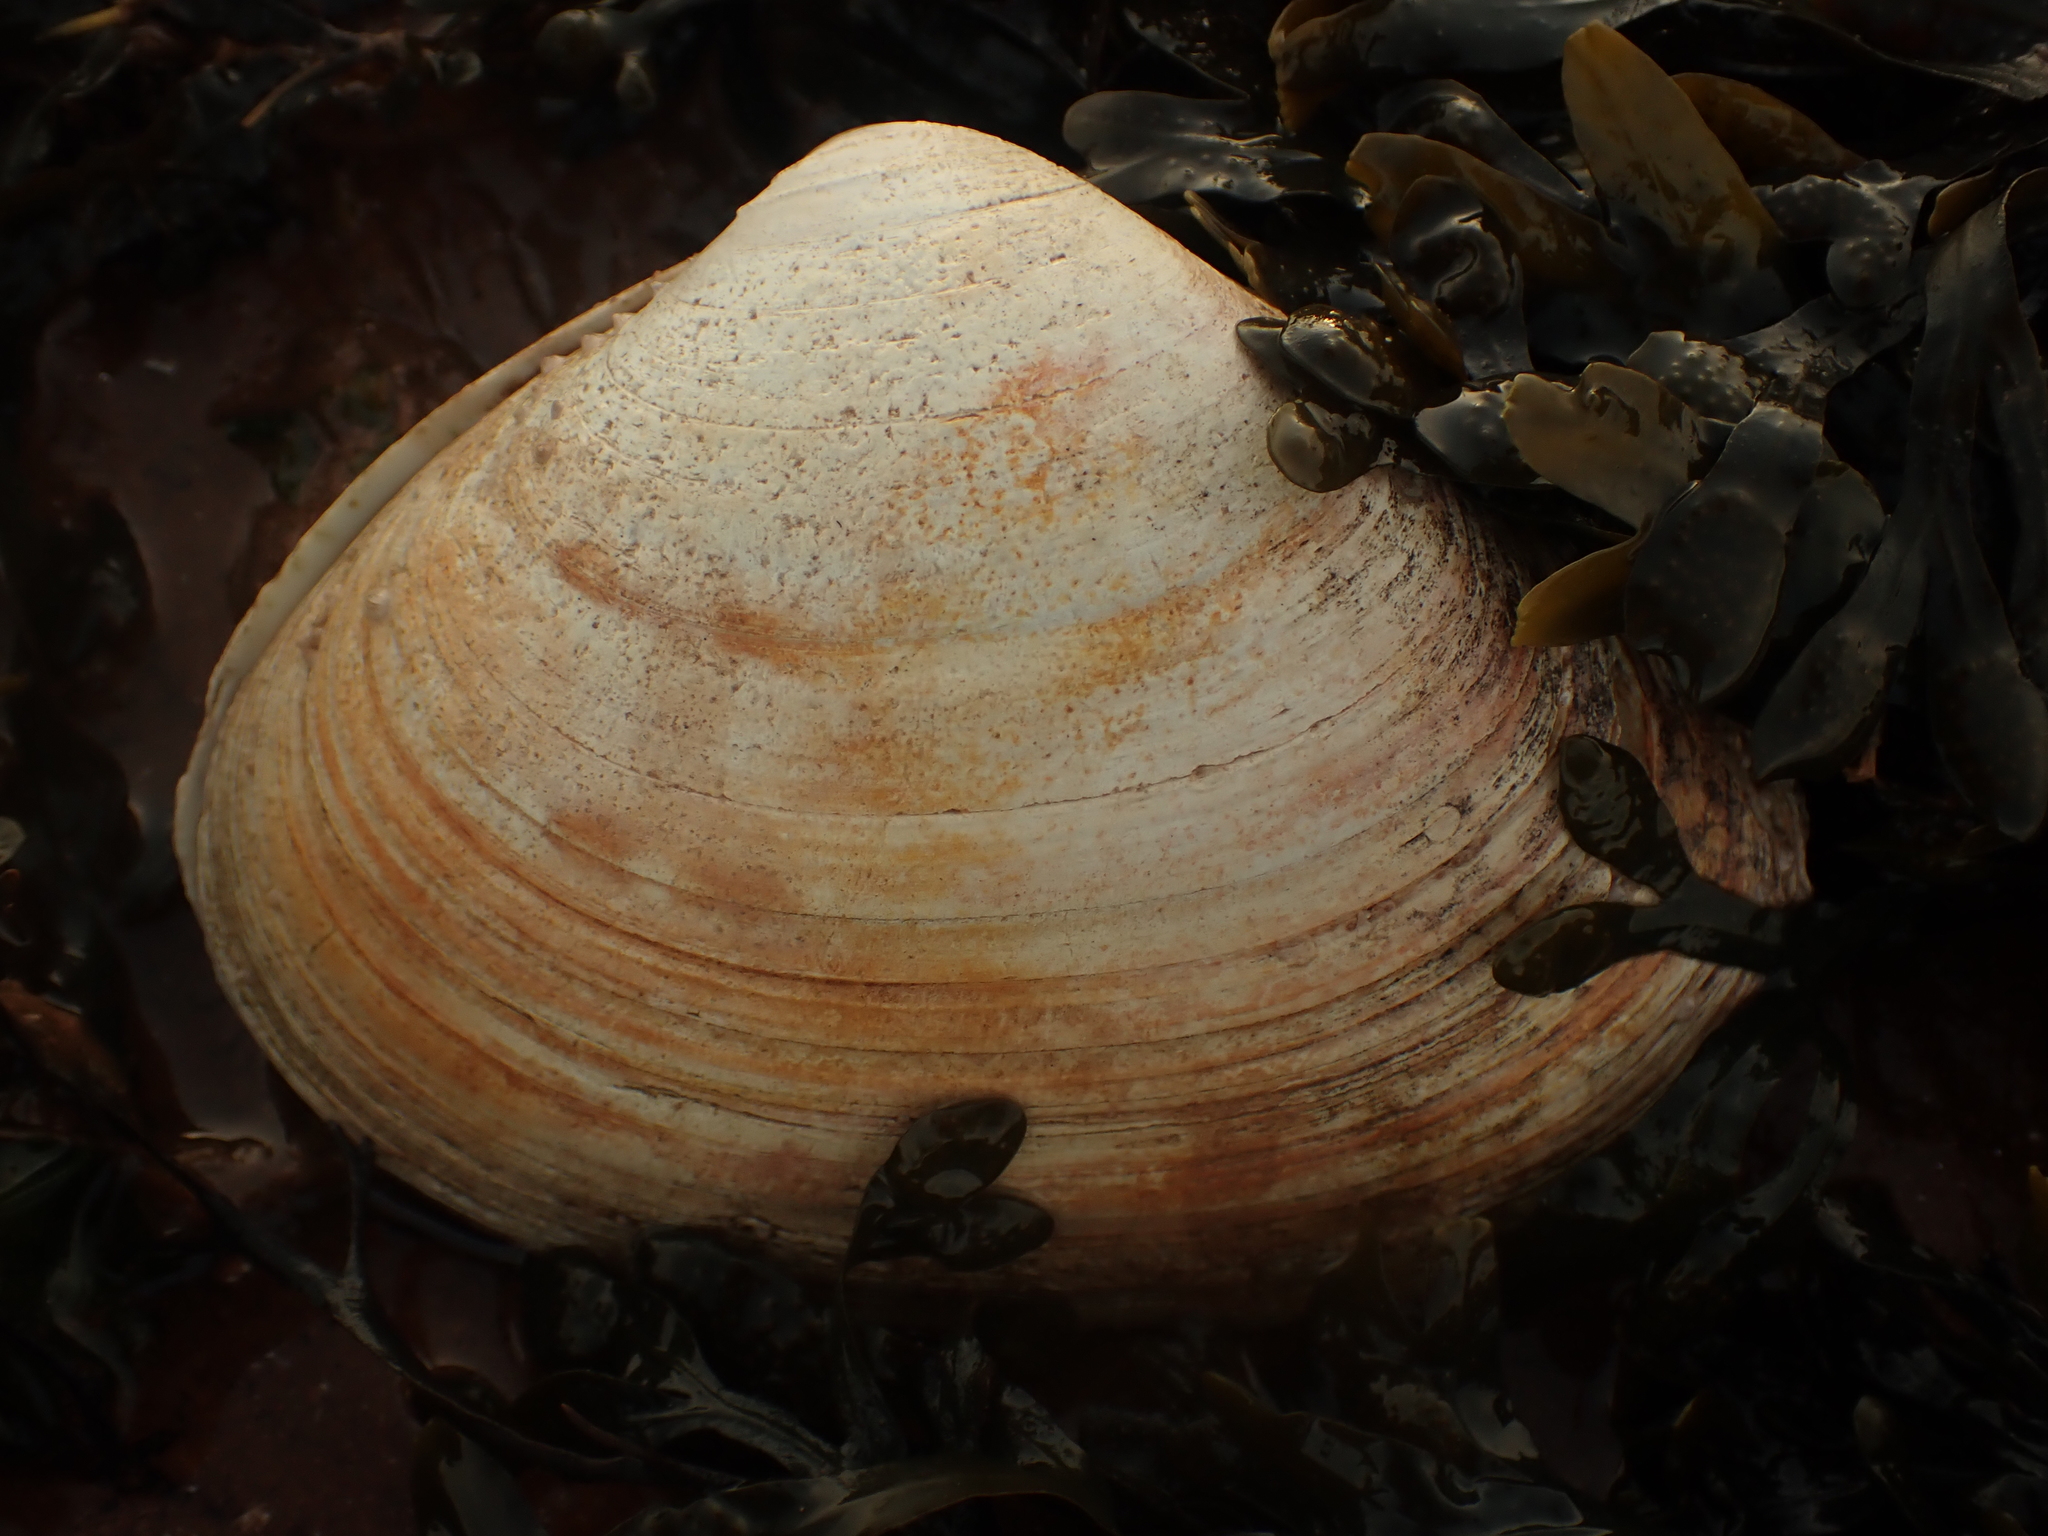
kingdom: Animalia
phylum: Mollusca
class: Bivalvia
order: Venerida
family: Mactridae
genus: Spisula
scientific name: Spisula solidissima
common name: Atlantic surf clam
